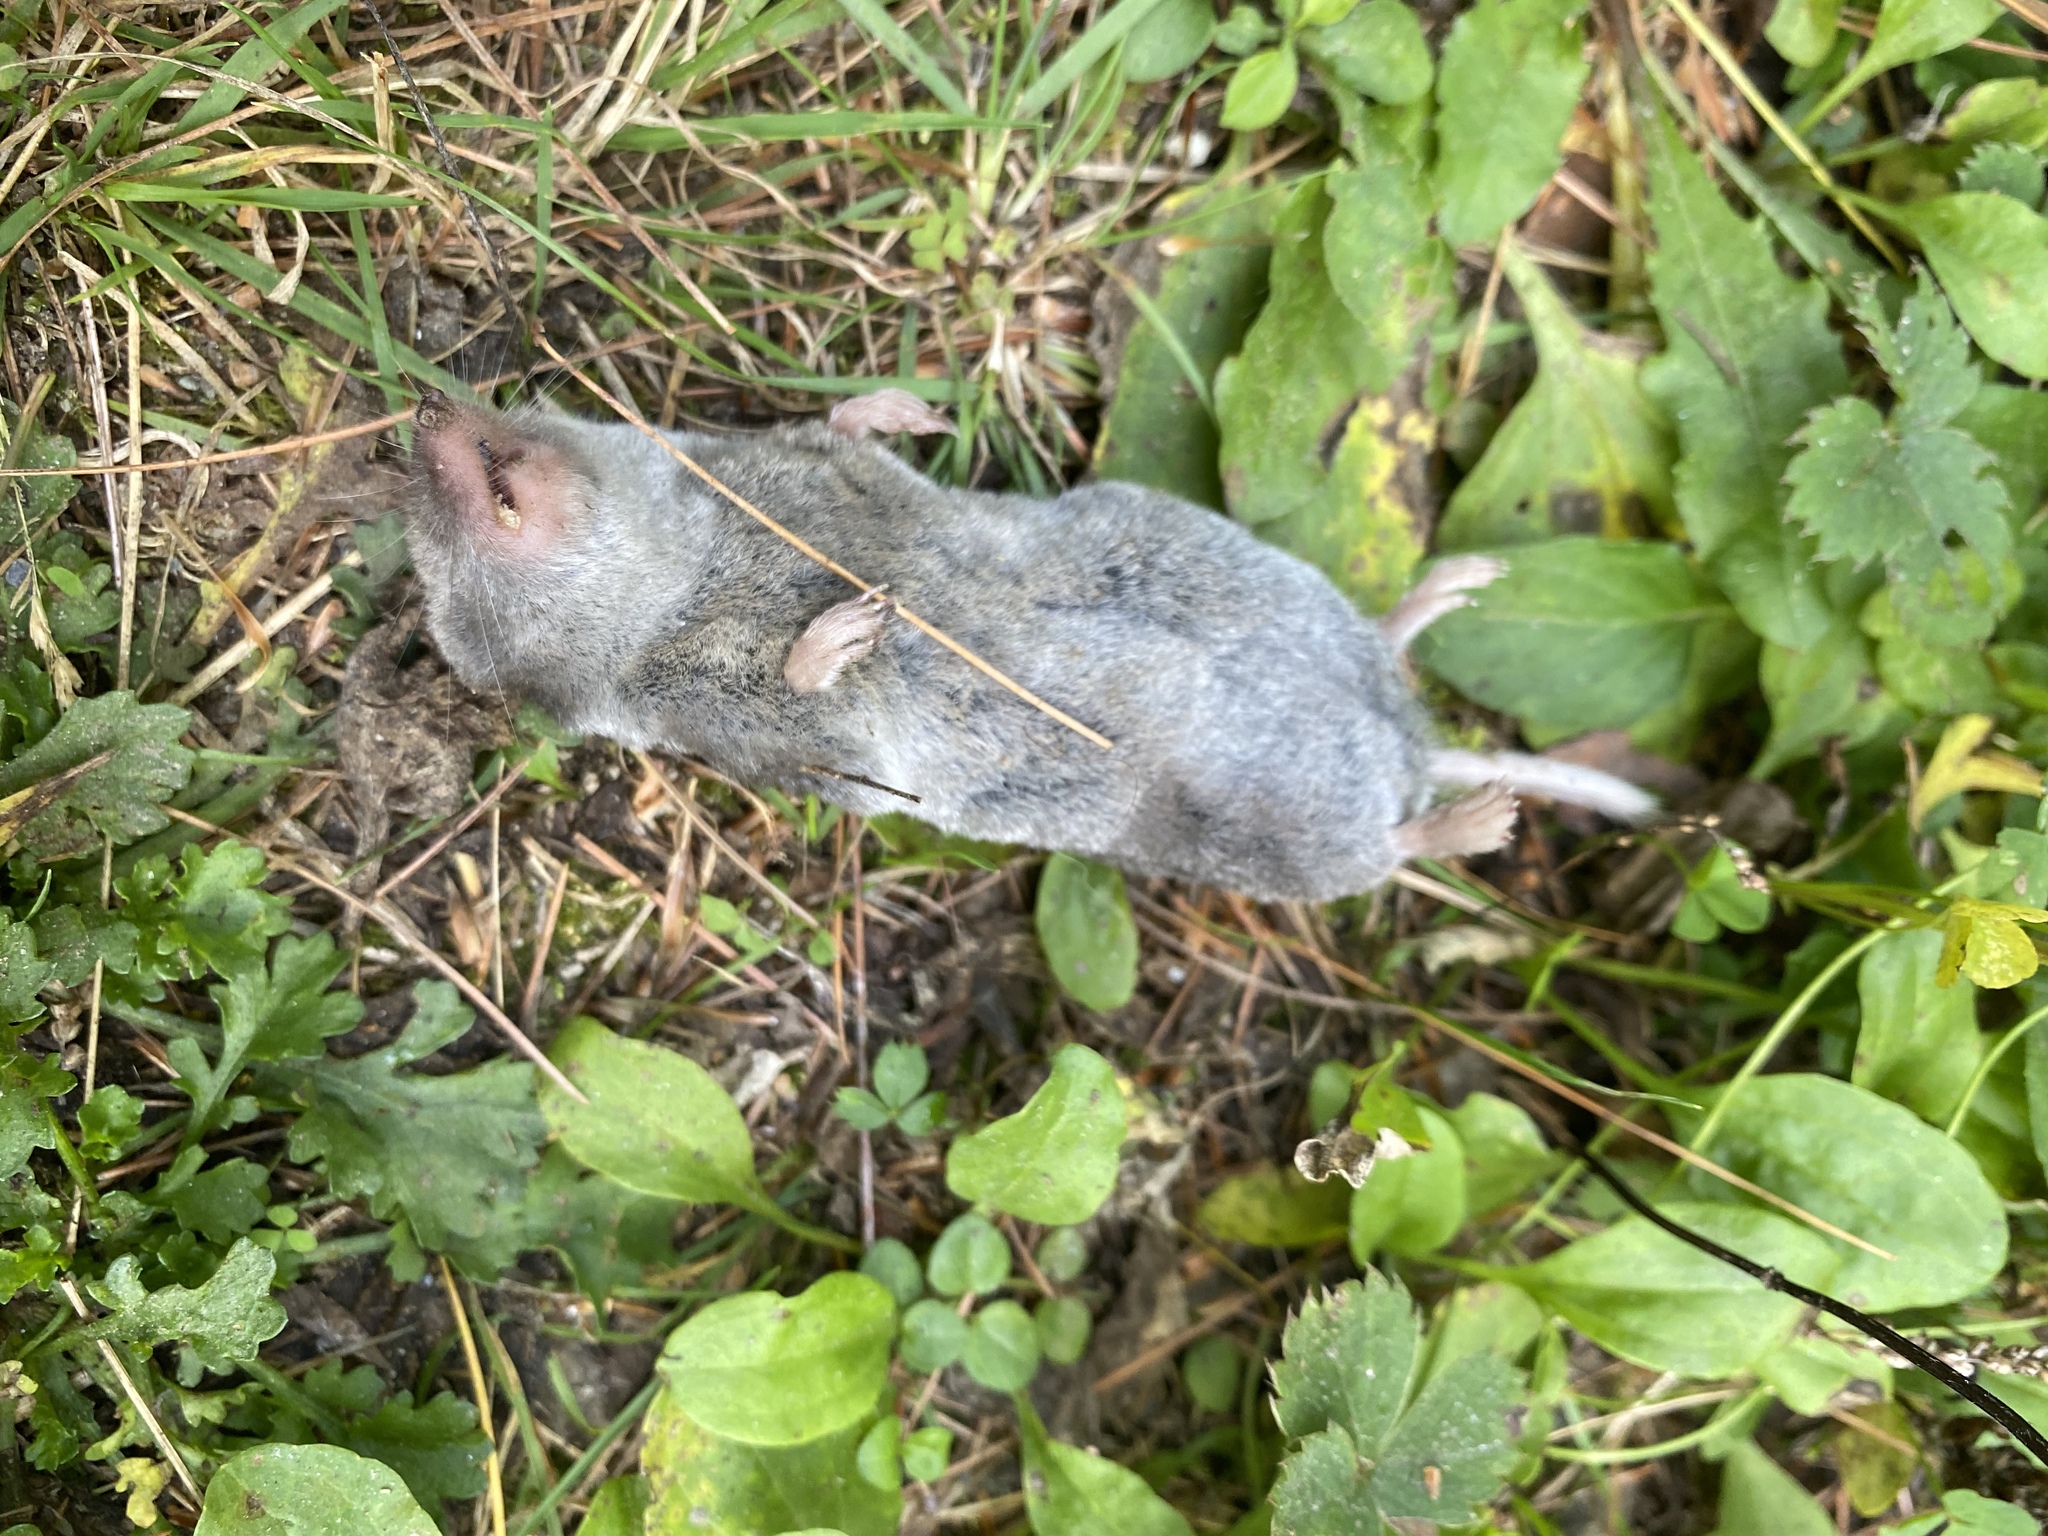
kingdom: Animalia
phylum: Chordata
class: Mammalia
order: Soricomorpha
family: Soricidae
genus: Blarina
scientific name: Blarina brevicauda
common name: Northern short-tailed shrew
